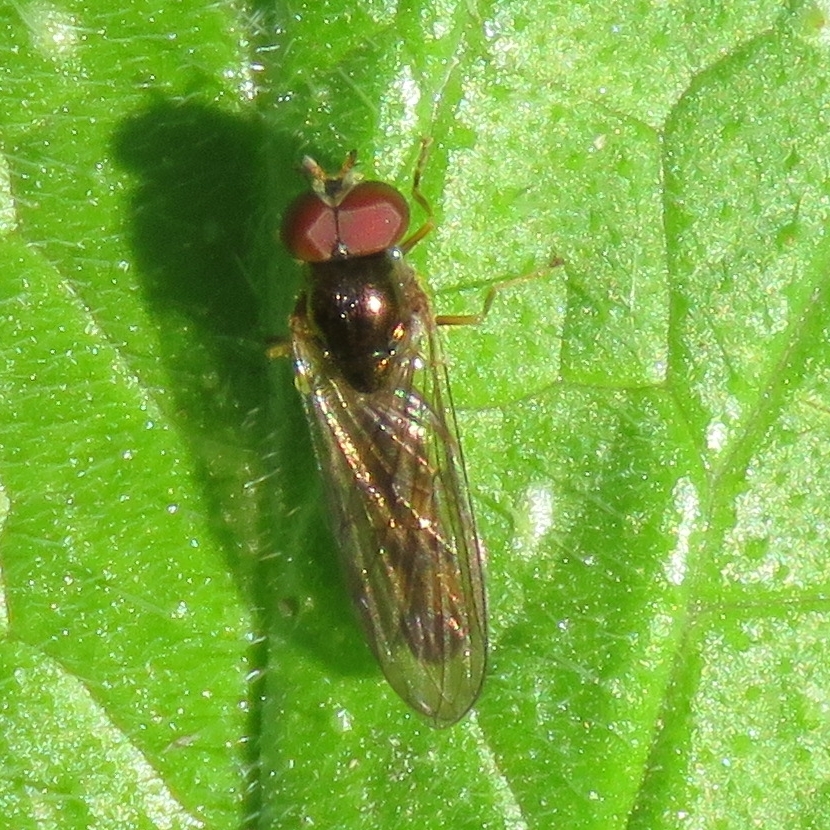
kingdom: Animalia
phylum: Arthropoda
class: Insecta
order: Diptera
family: Syrphidae
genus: Melanostoma
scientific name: Melanostoma scalare
